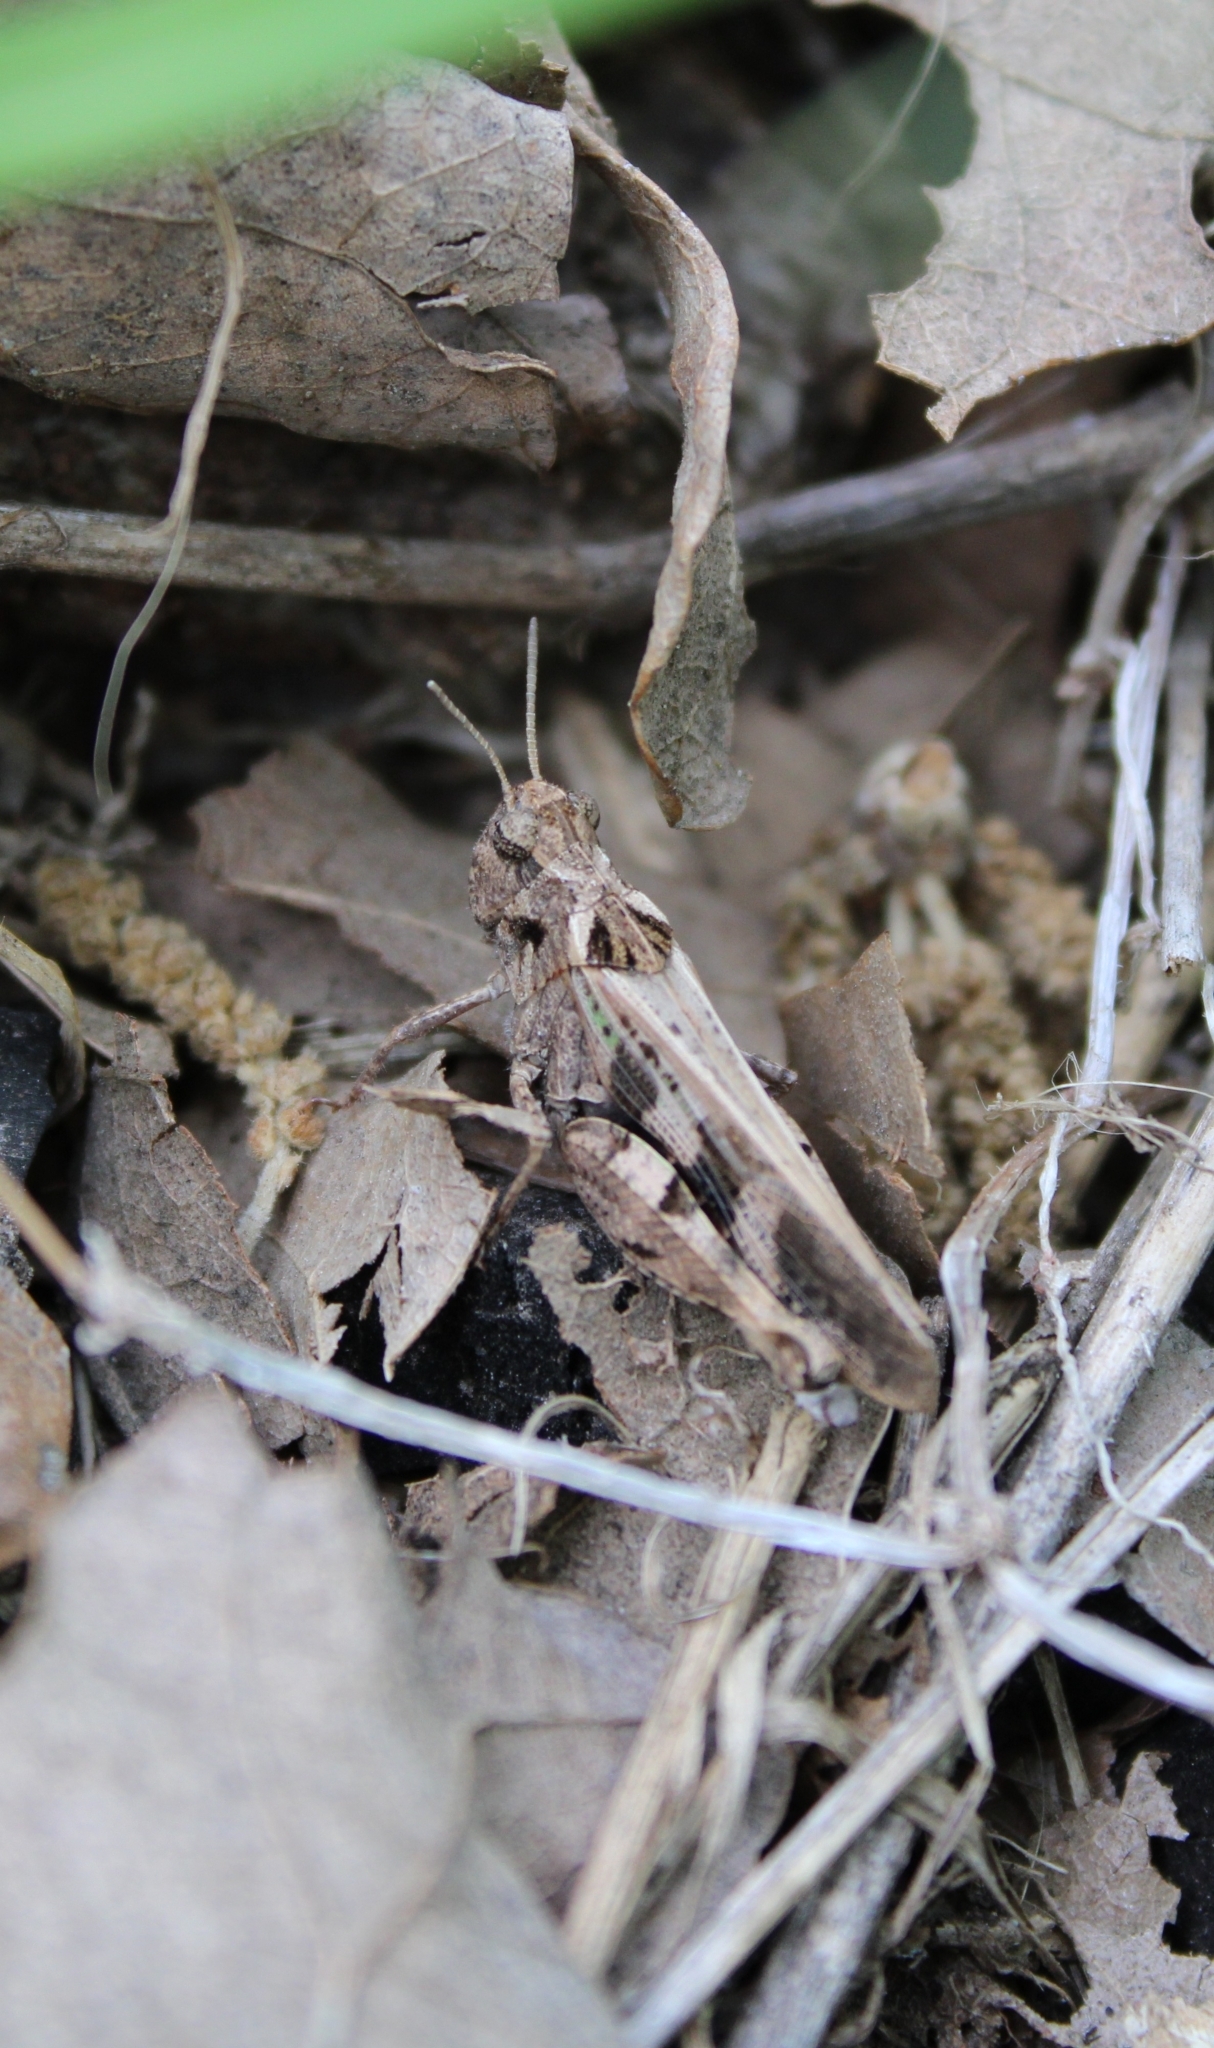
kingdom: Animalia
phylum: Arthropoda
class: Insecta
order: Orthoptera
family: Acrididae
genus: Encoptolophus
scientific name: Encoptolophus costalis
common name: Dusky grasshopper
